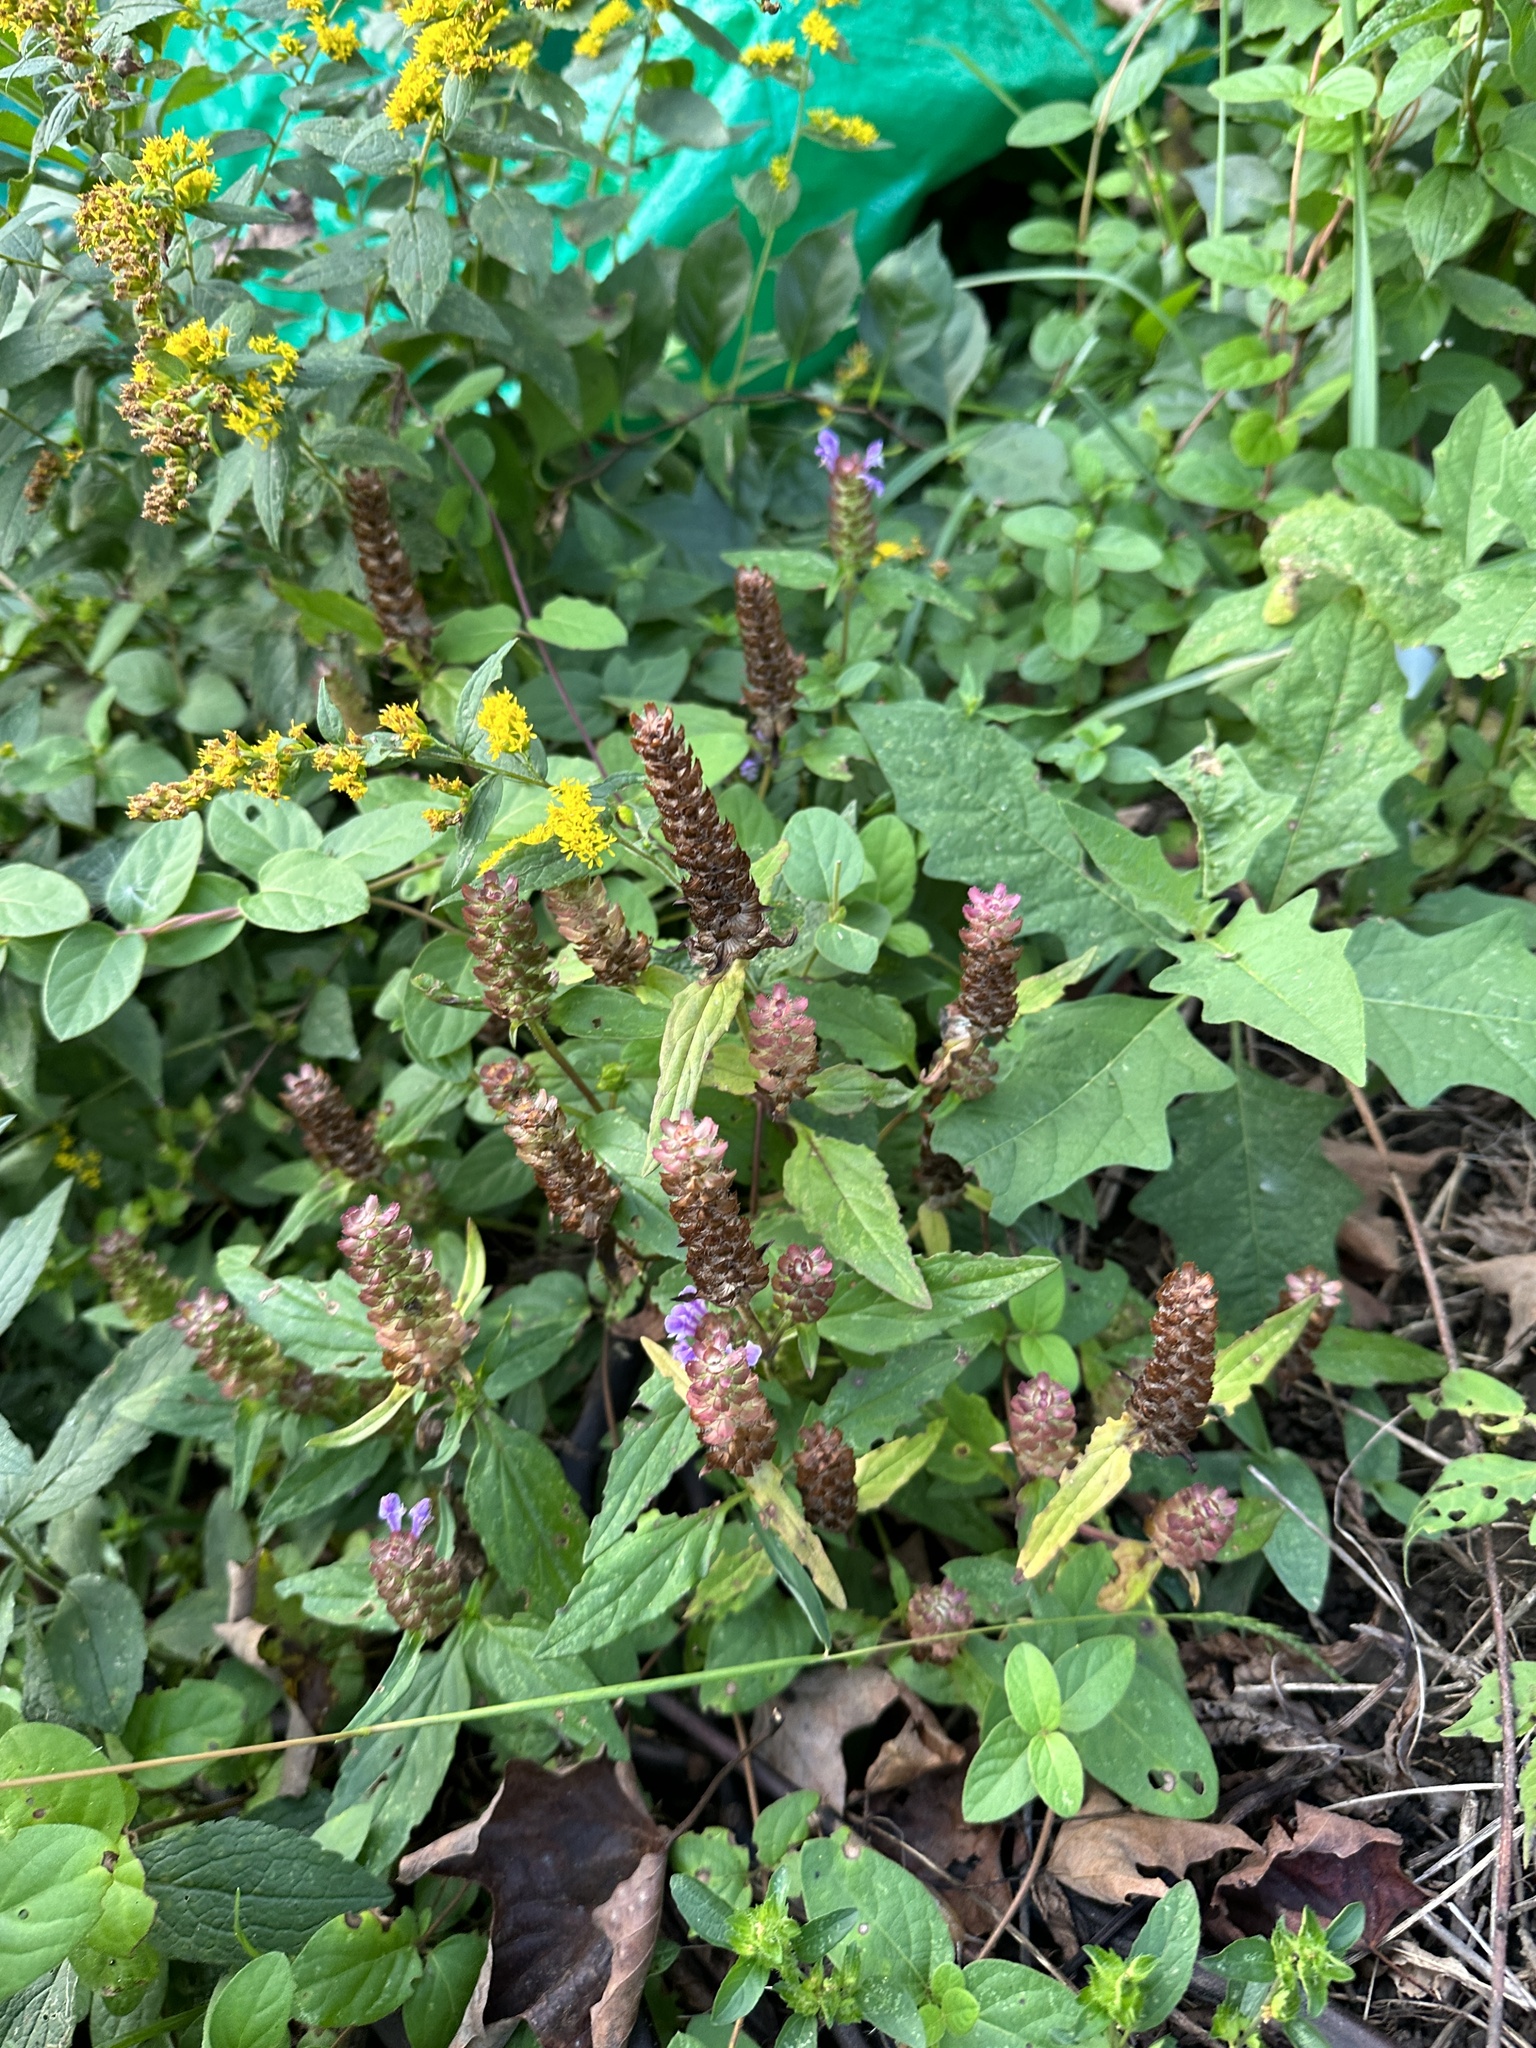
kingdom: Plantae
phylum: Tracheophyta
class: Magnoliopsida
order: Lamiales
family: Lamiaceae
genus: Prunella
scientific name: Prunella vulgaris
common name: Heal-all
